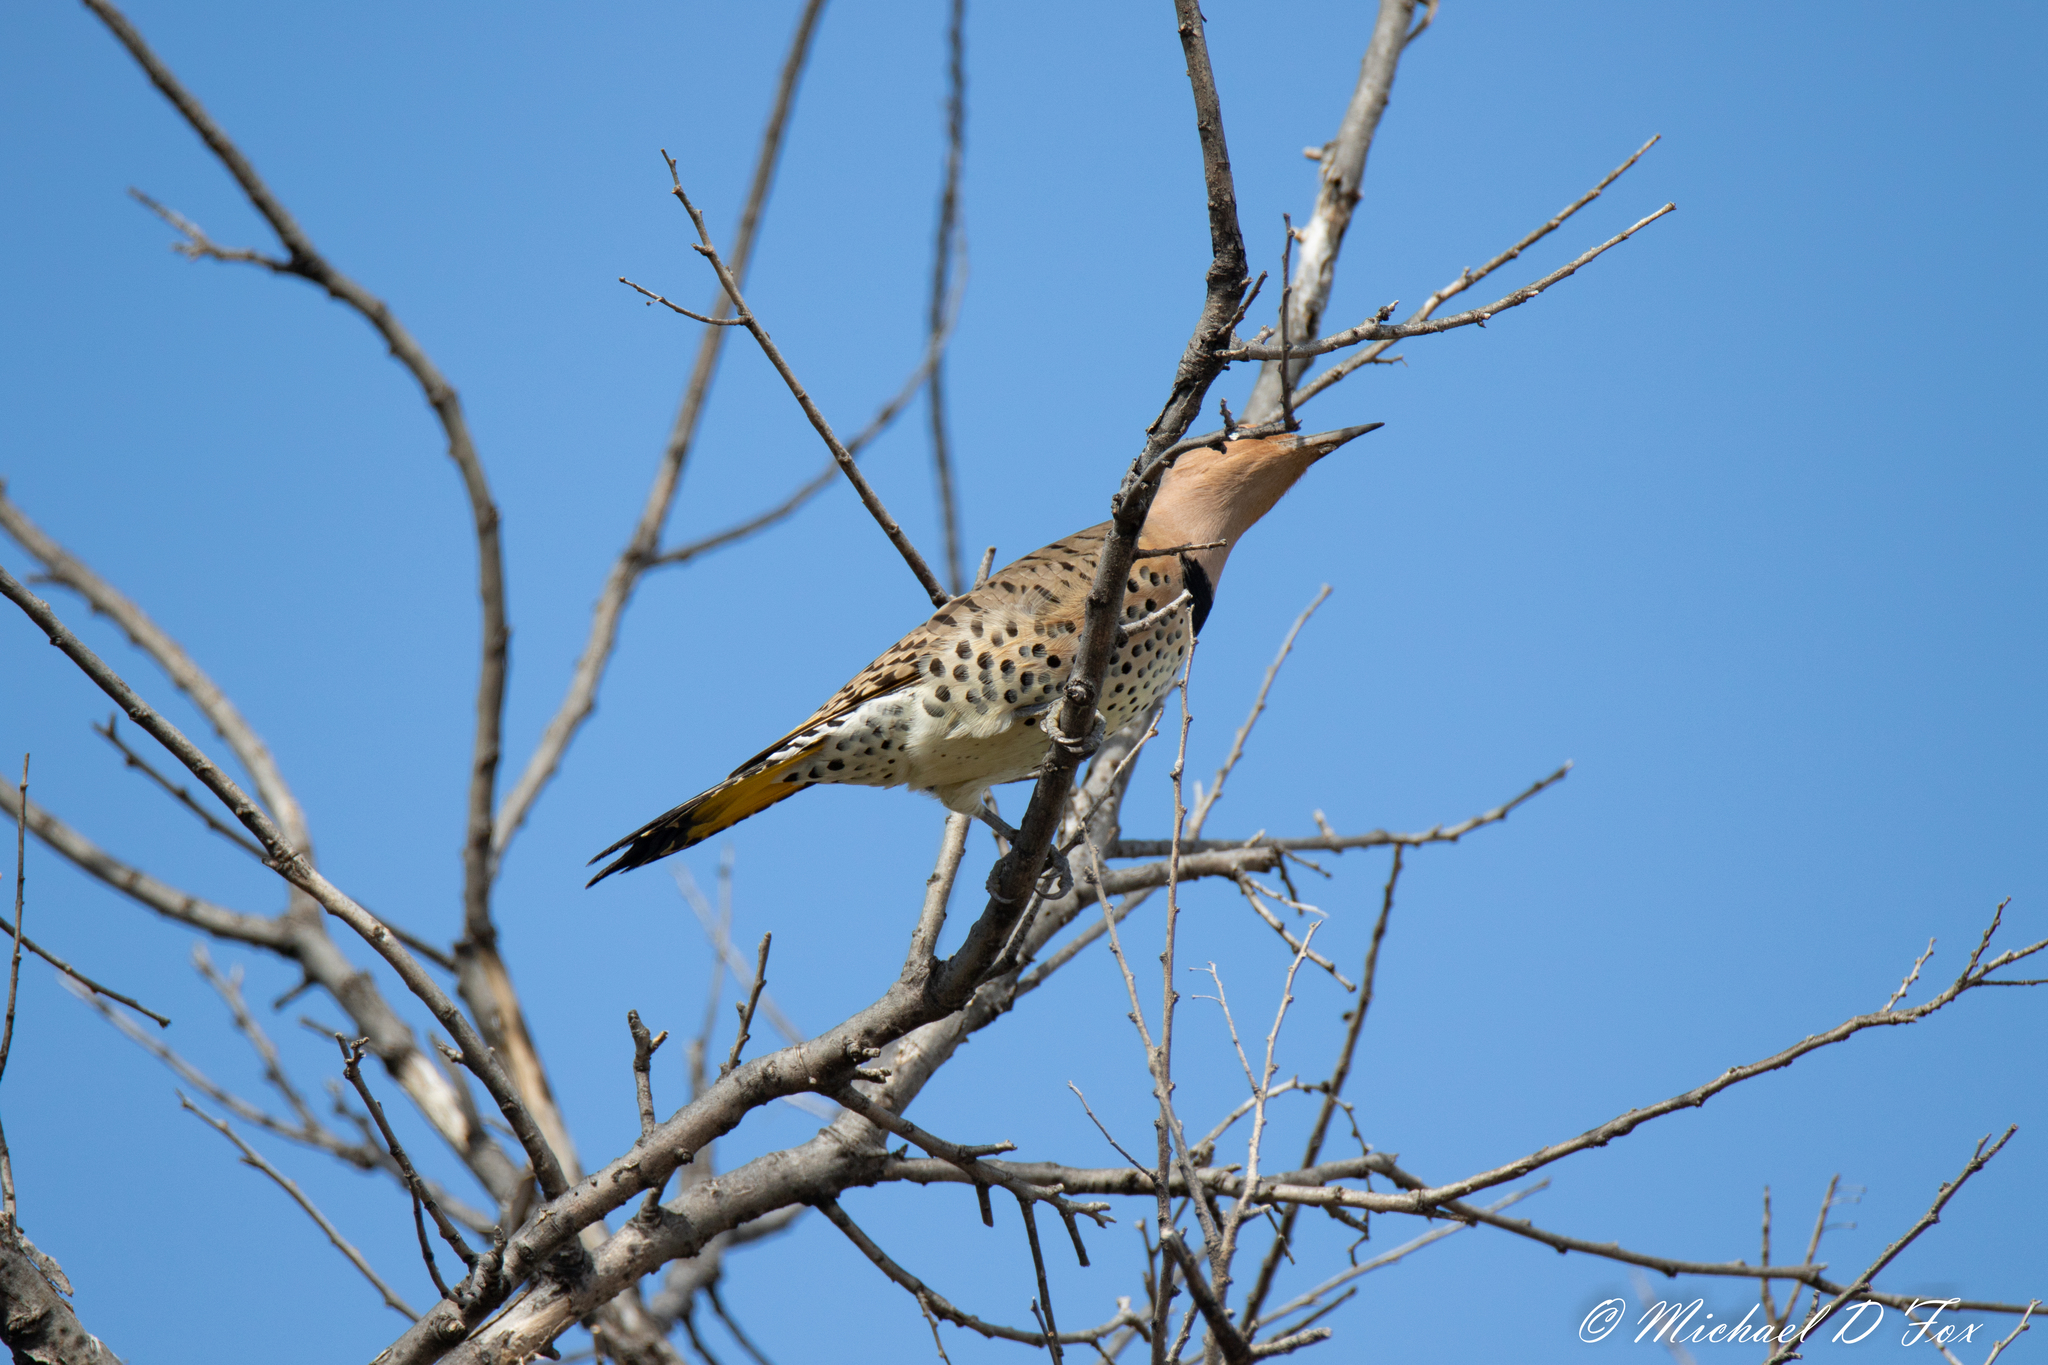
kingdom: Animalia
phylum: Chordata
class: Aves
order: Piciformes
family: Picidae
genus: Colaptes
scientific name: Colaptes auratus
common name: Northern flicker
